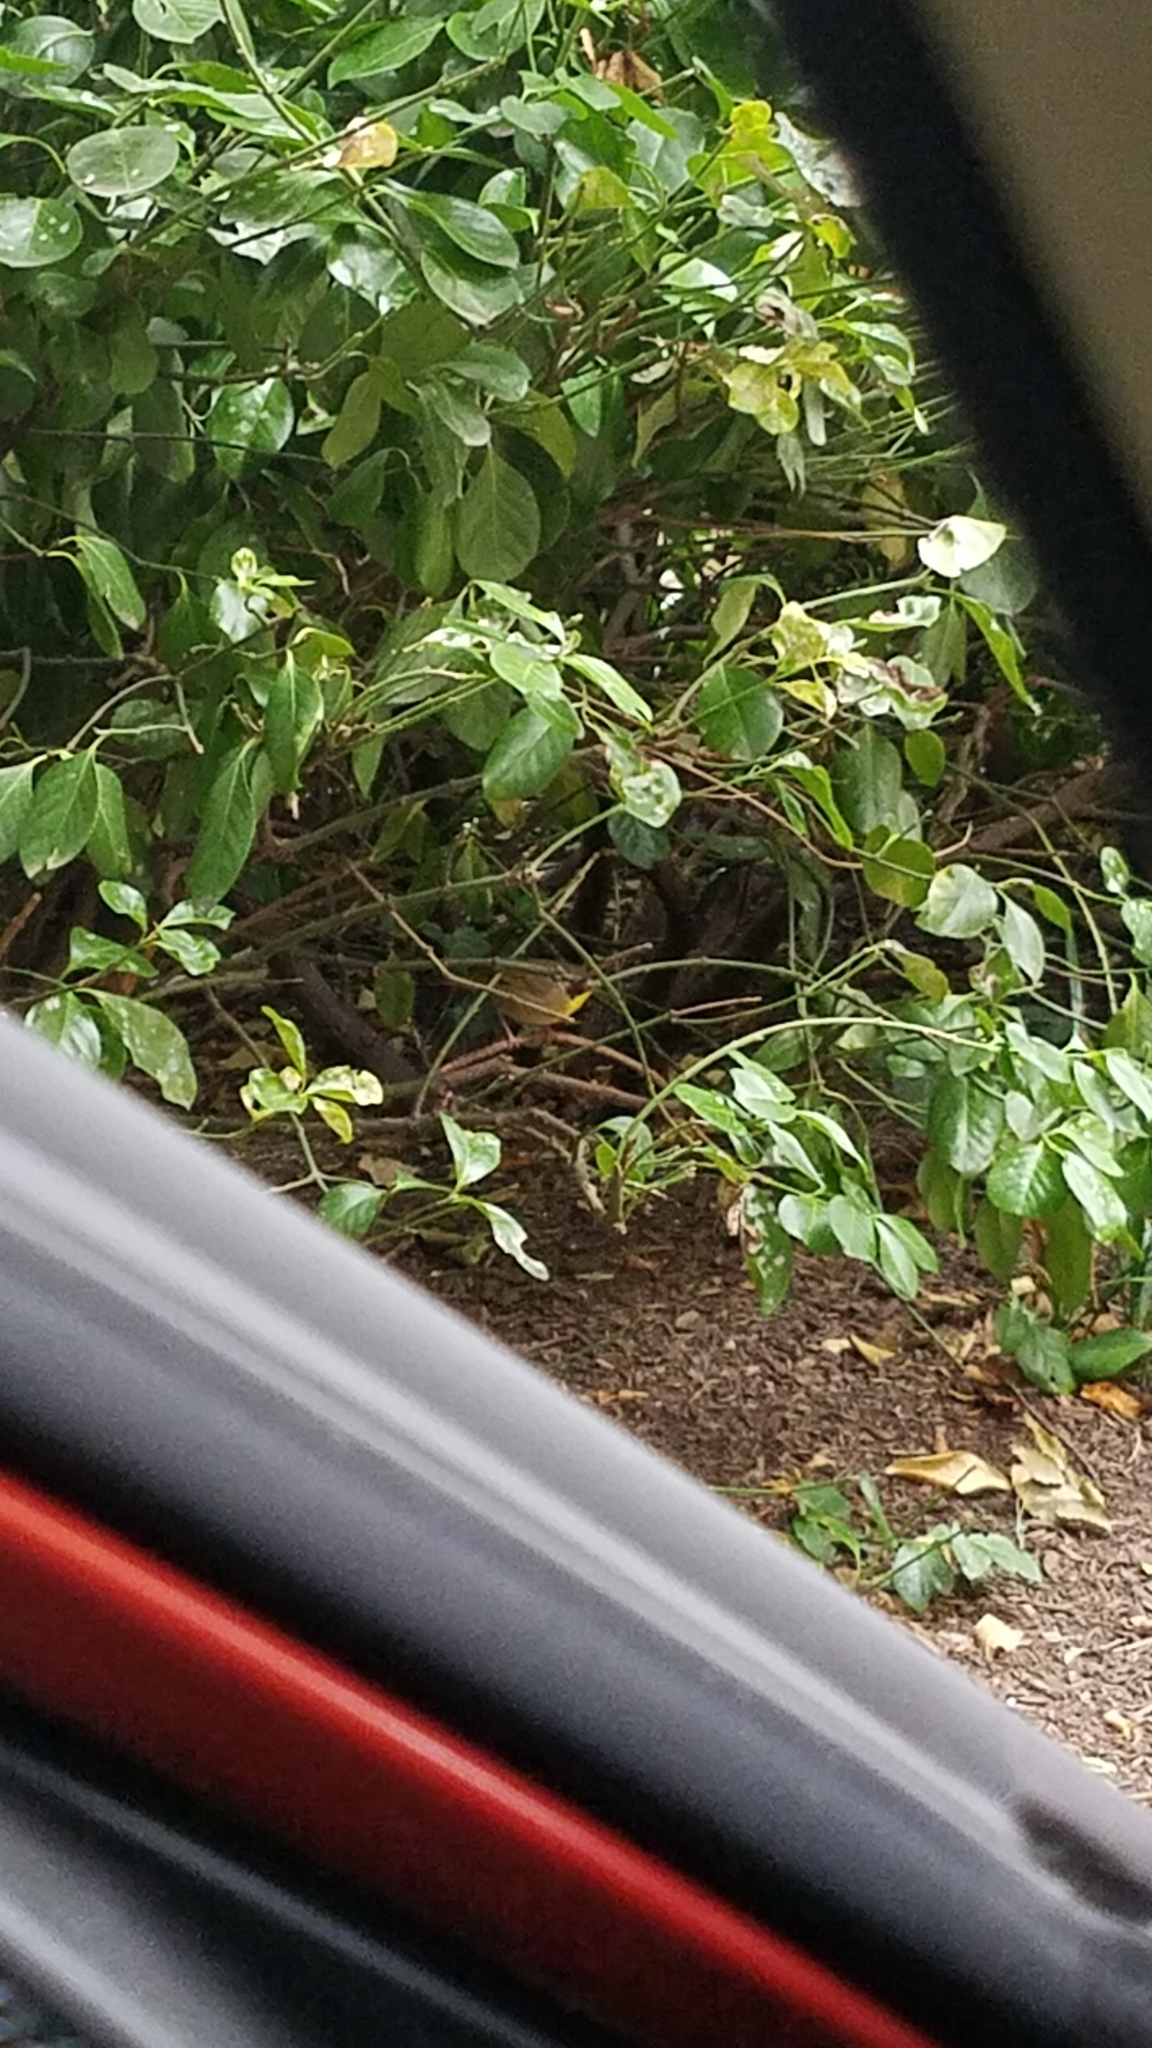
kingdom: Animalia
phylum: Chordata
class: Aves
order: Passeriformes
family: Parulidae
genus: Geothlypis
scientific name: Geothlypis trichas
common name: Common yellowthroat
